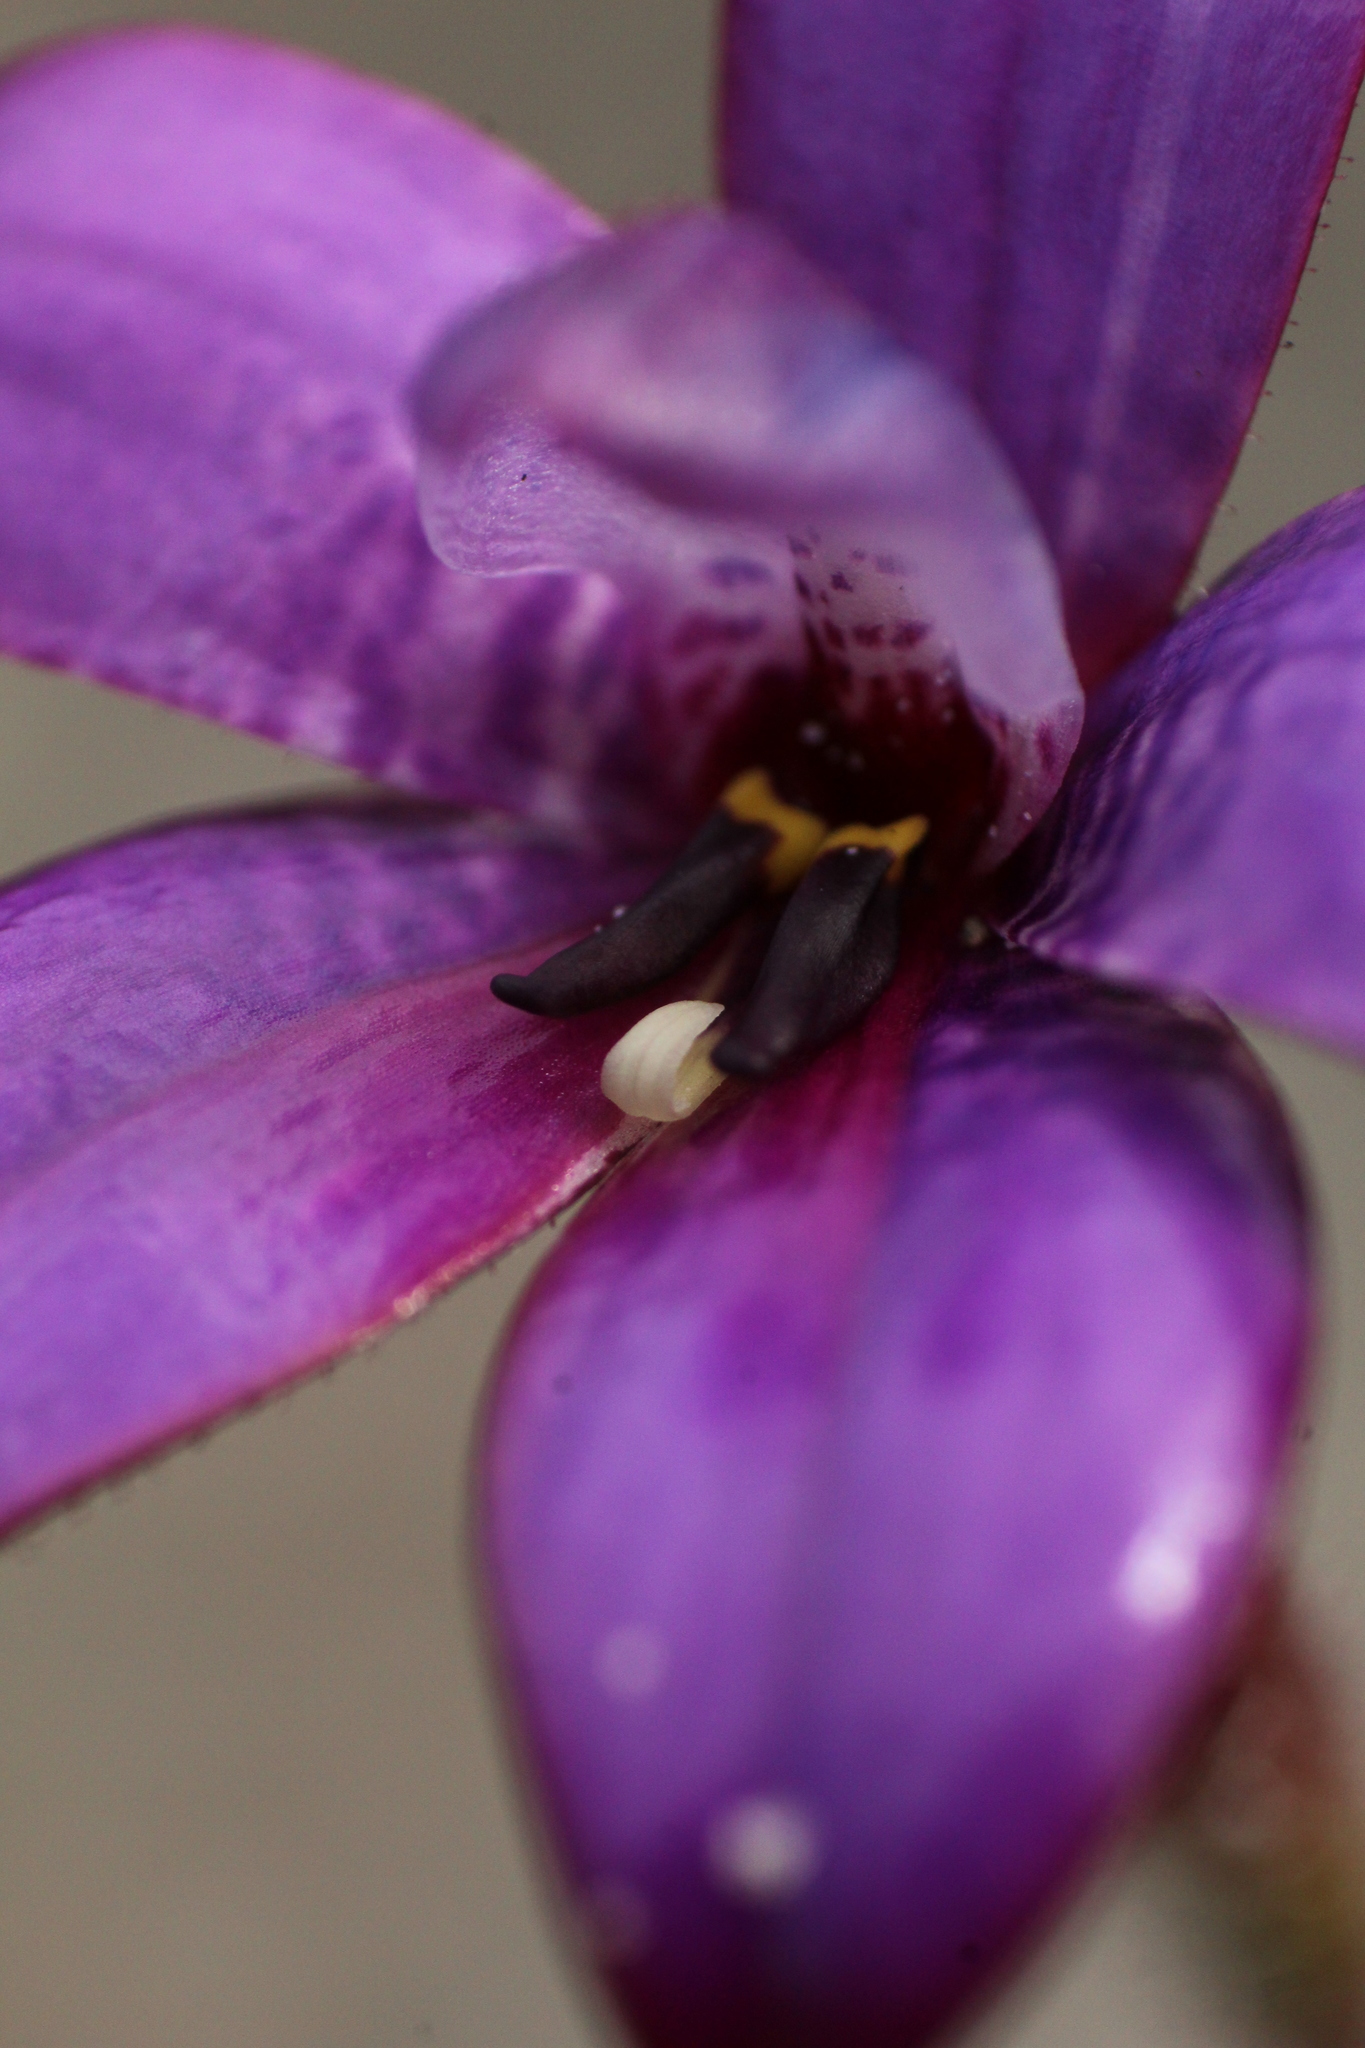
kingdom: Plantae
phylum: Tracheophyta
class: Liliopsida
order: Asparagales
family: Orchidaceae
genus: Caladenia
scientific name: Caladenia brunonis
